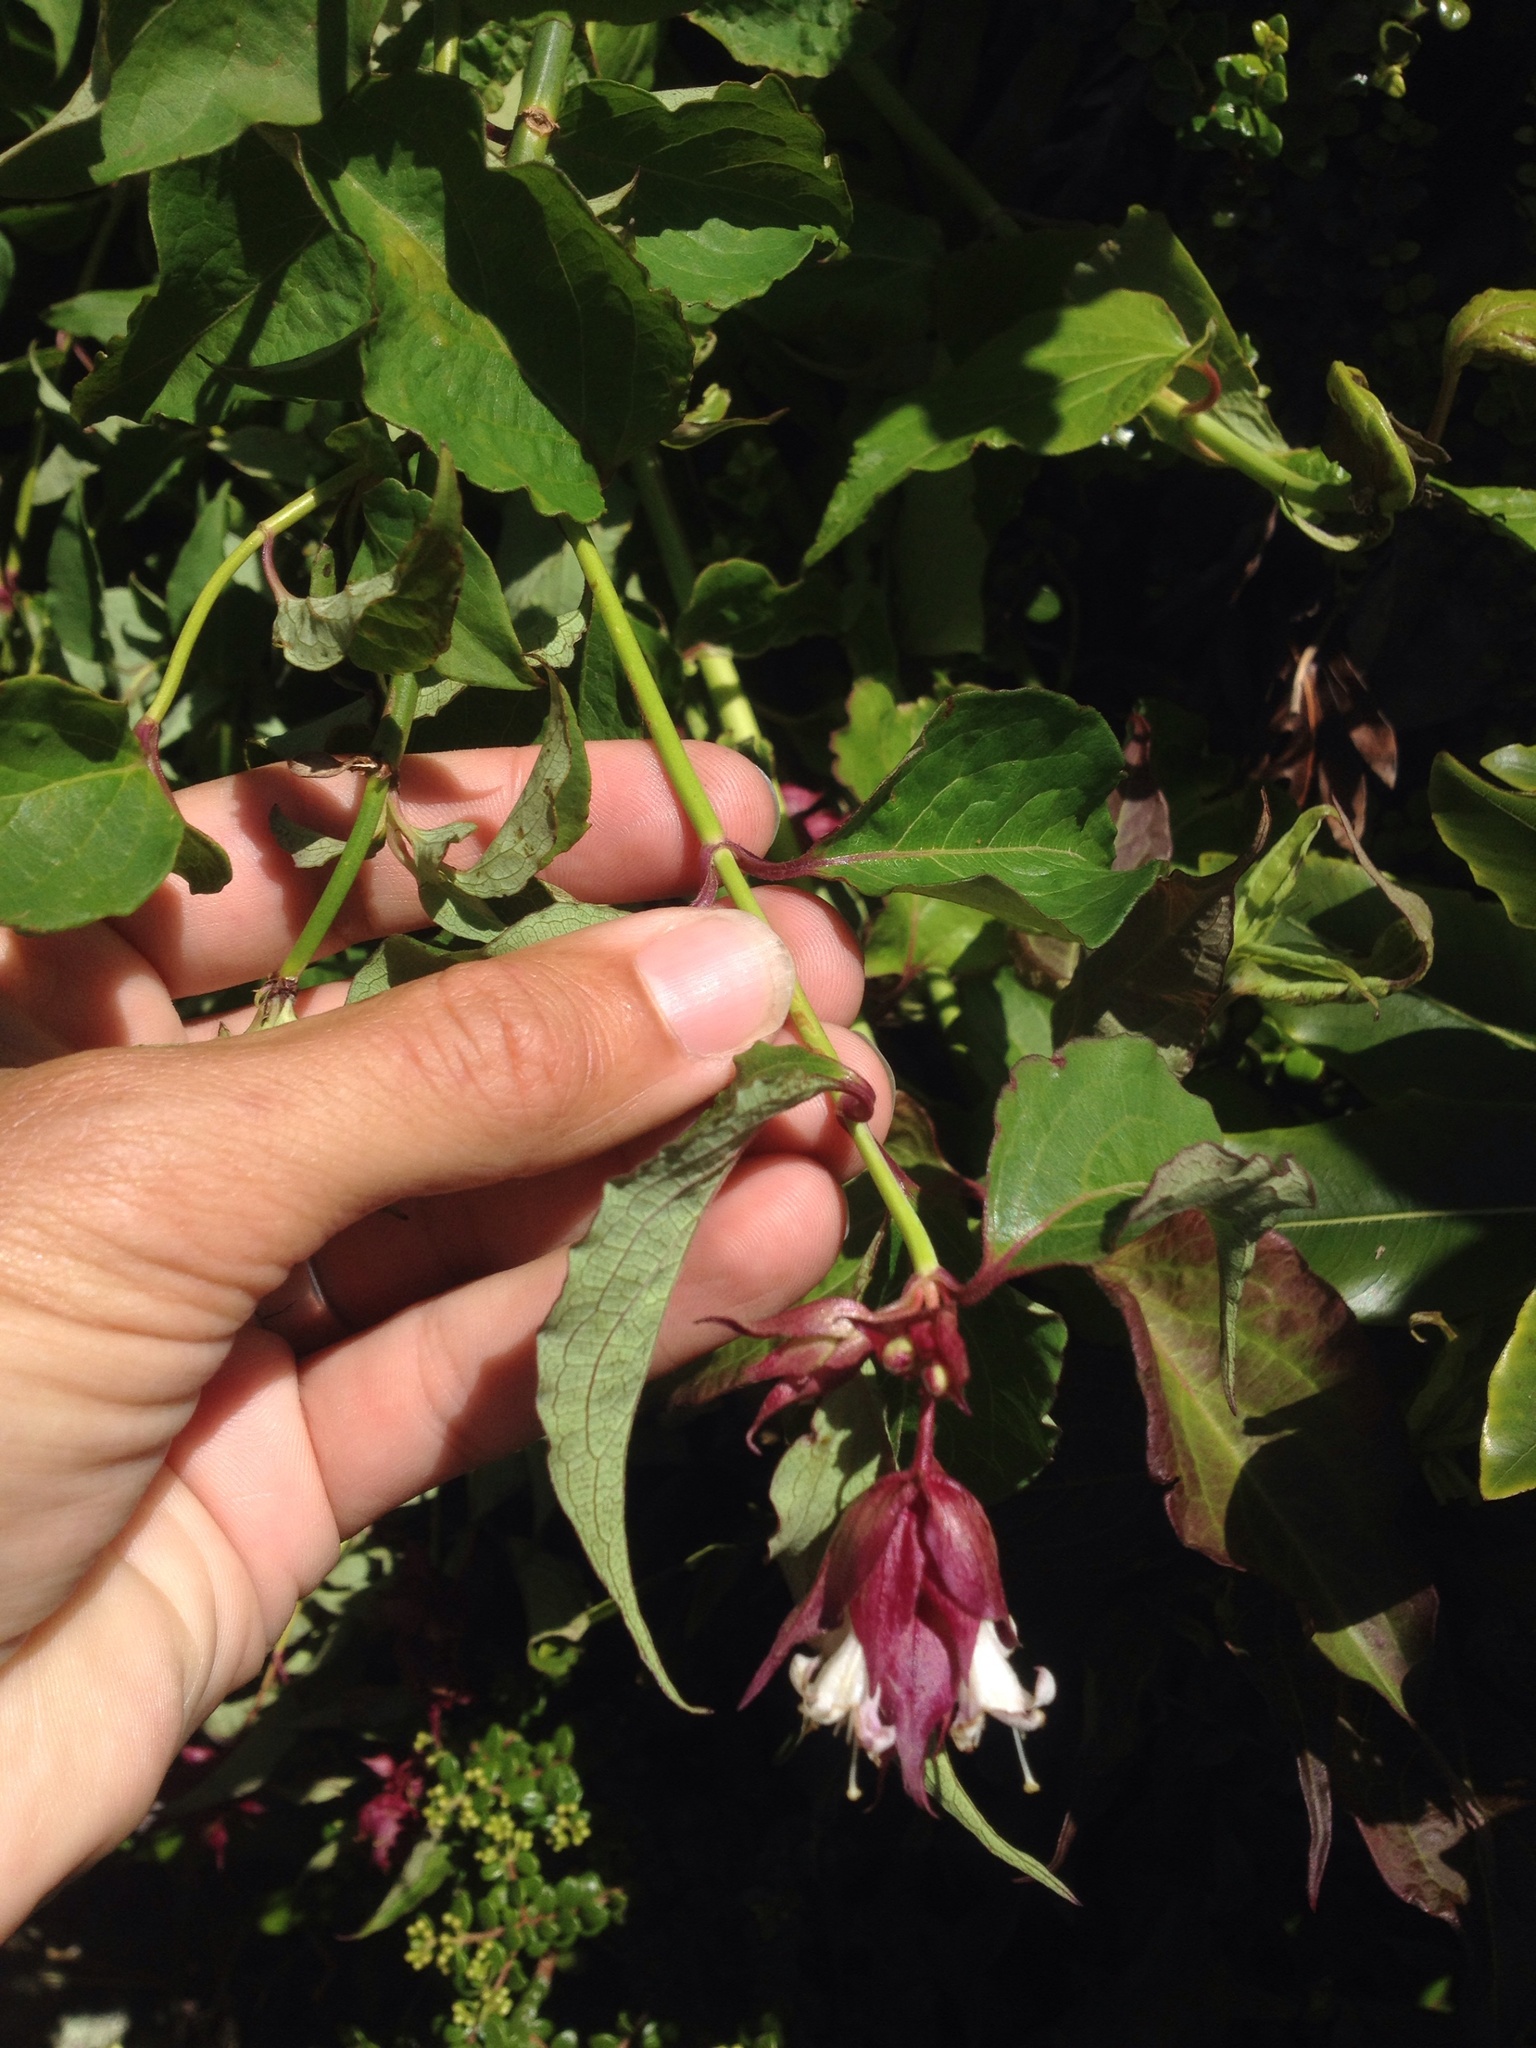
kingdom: Plantae
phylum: Tracheophyta
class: Magnoliopsida
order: Dipsacales
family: Caprifoliaceae
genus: Leycesteria
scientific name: Leycesteria formosa
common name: Himalayan honeysuckle
